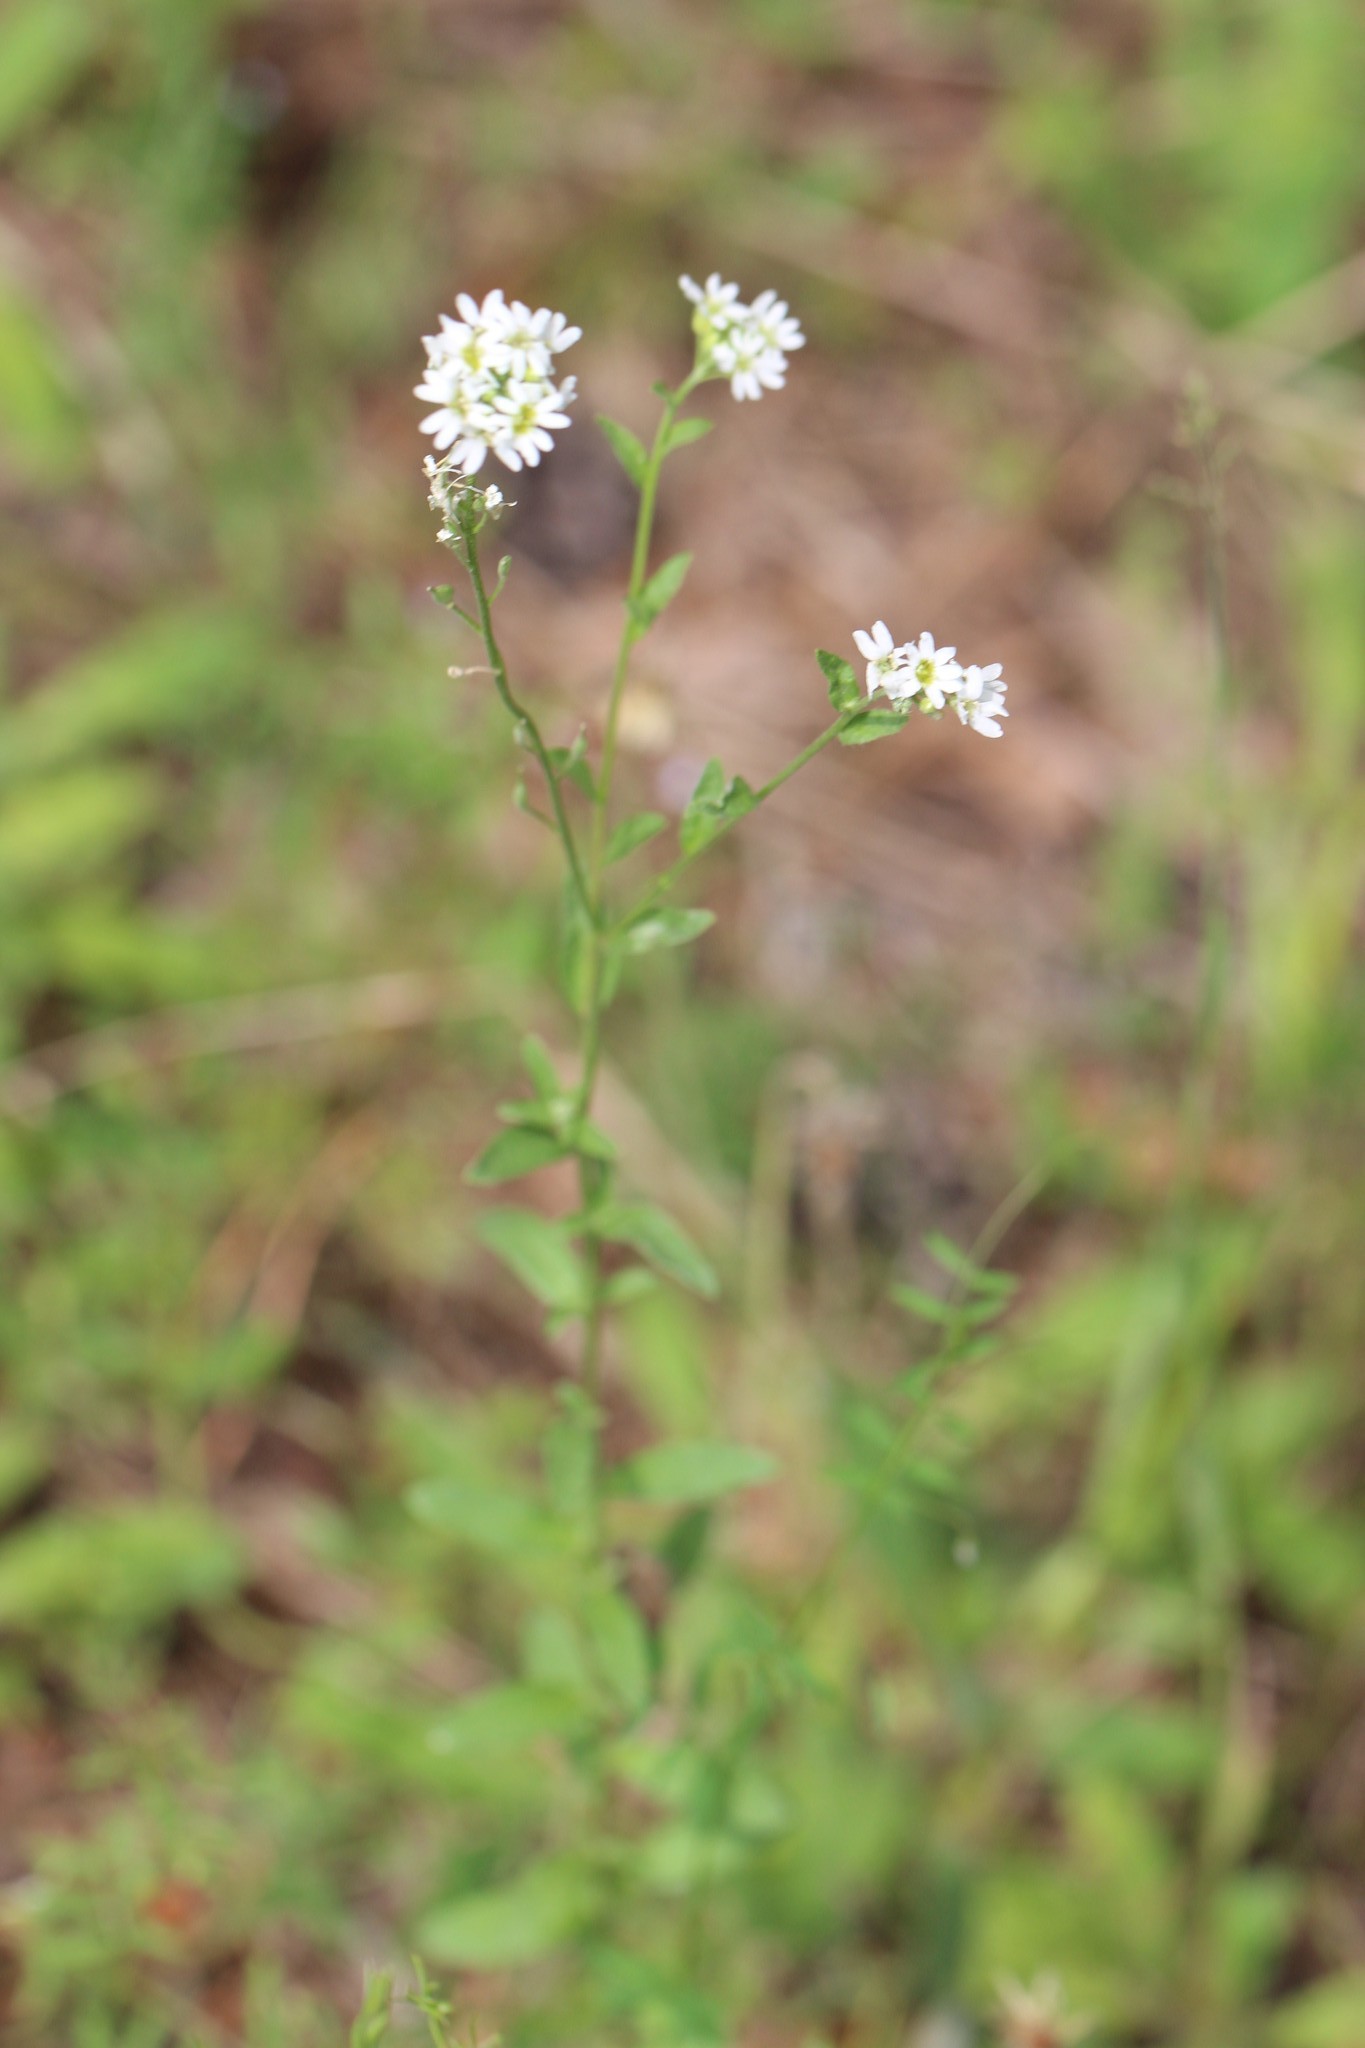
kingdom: Plantae
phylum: Tracheophyta
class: Magnoliopsida
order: Brassicales
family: Brassicaceae
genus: Berteroa
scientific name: Berteroa incana
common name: Hoary alison
